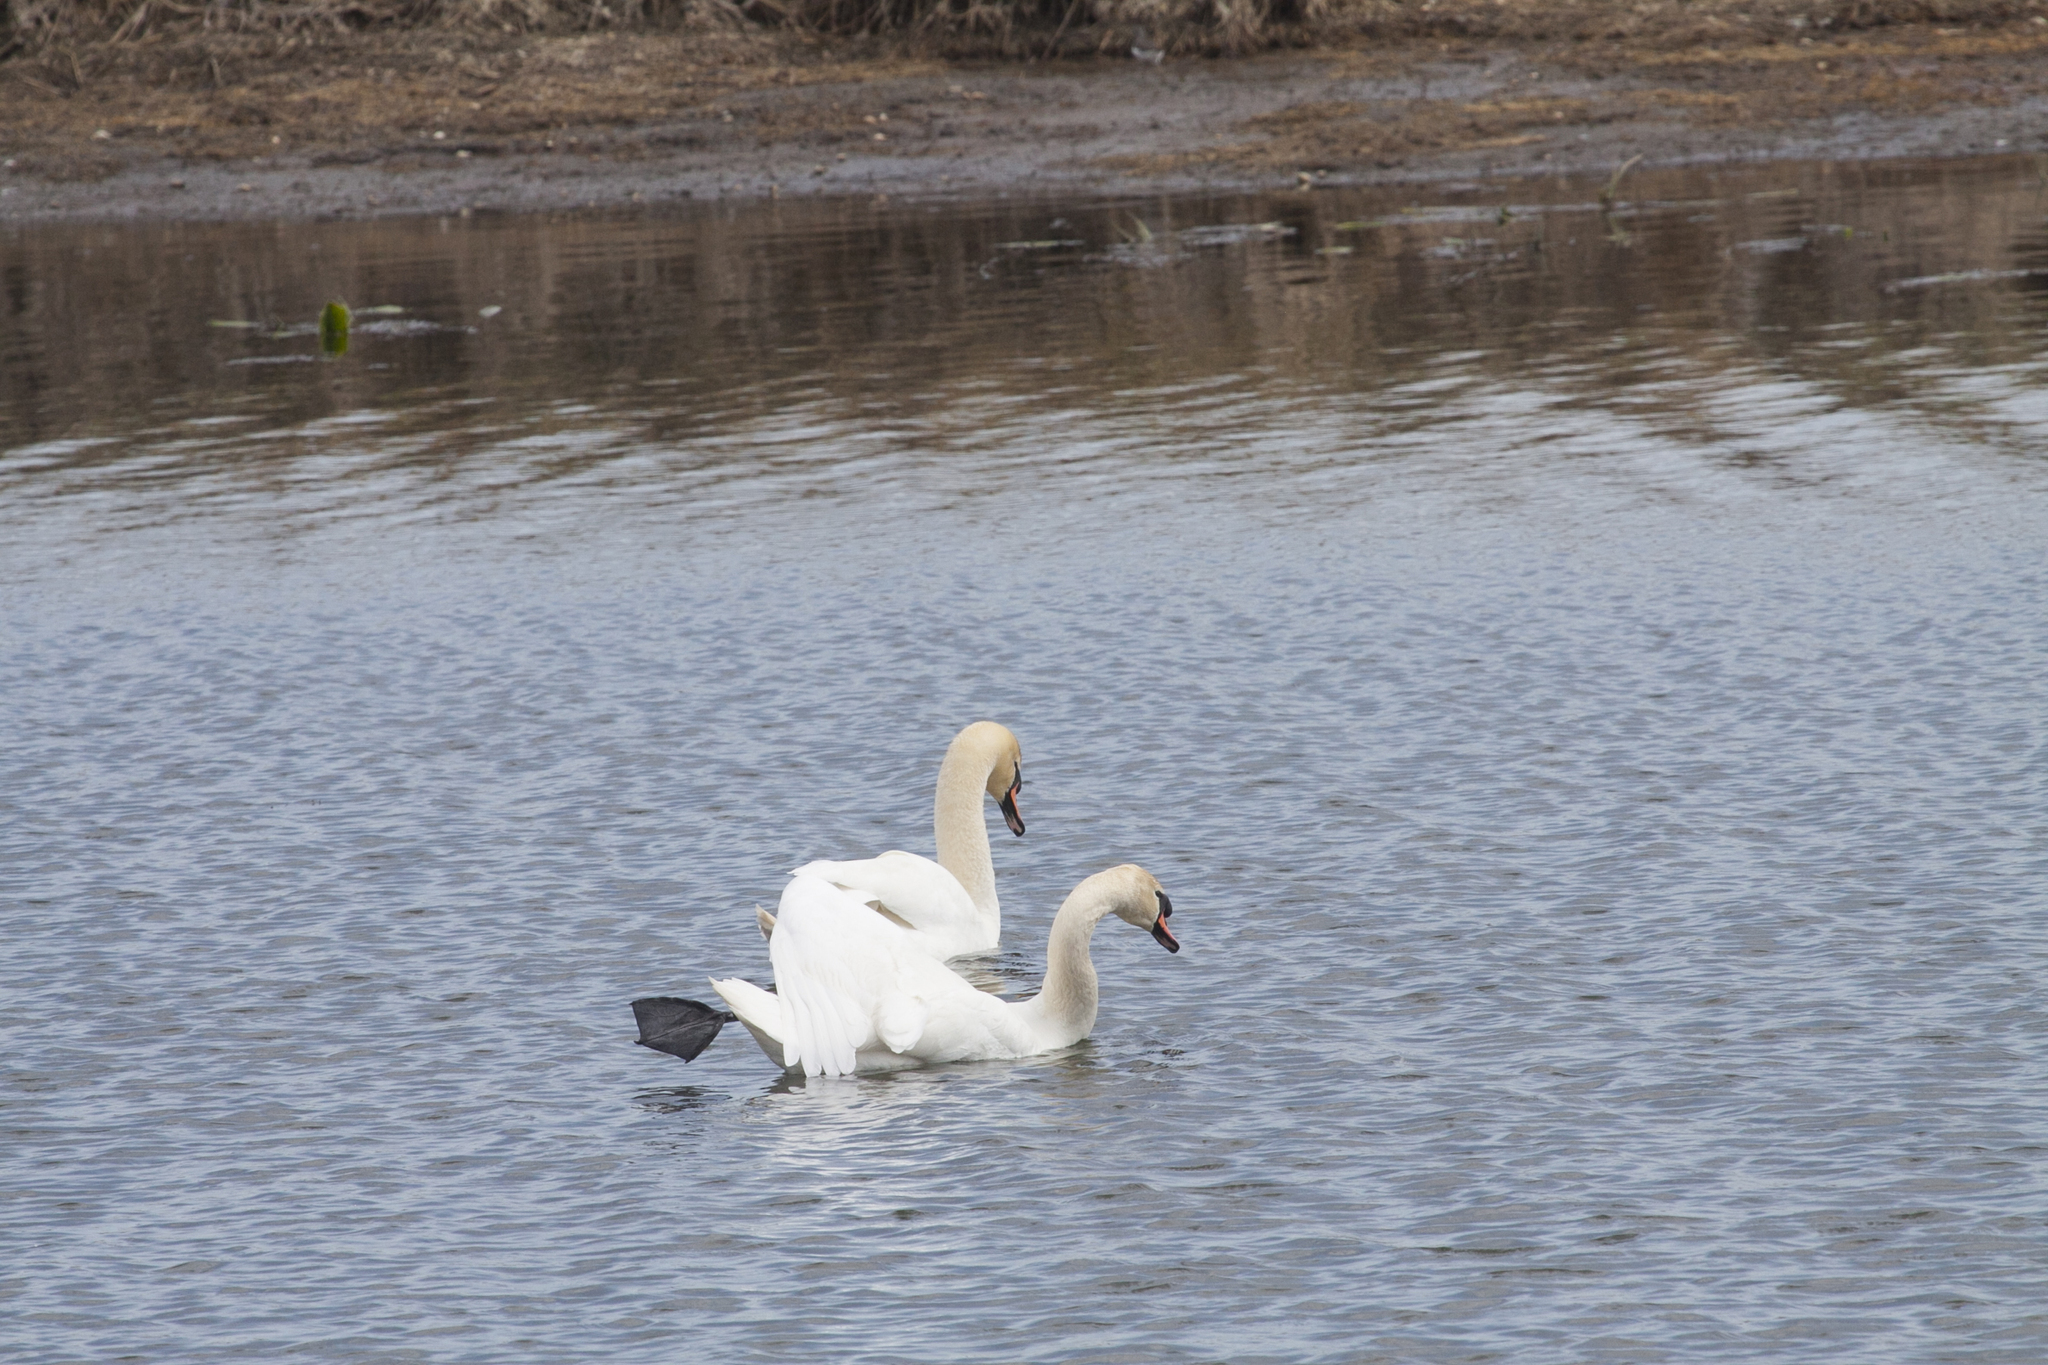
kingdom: Animalia
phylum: Chordata
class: Aves
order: Anseriformes
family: Anatidae
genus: Cygnus
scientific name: Cygnus olor
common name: Mute swan
